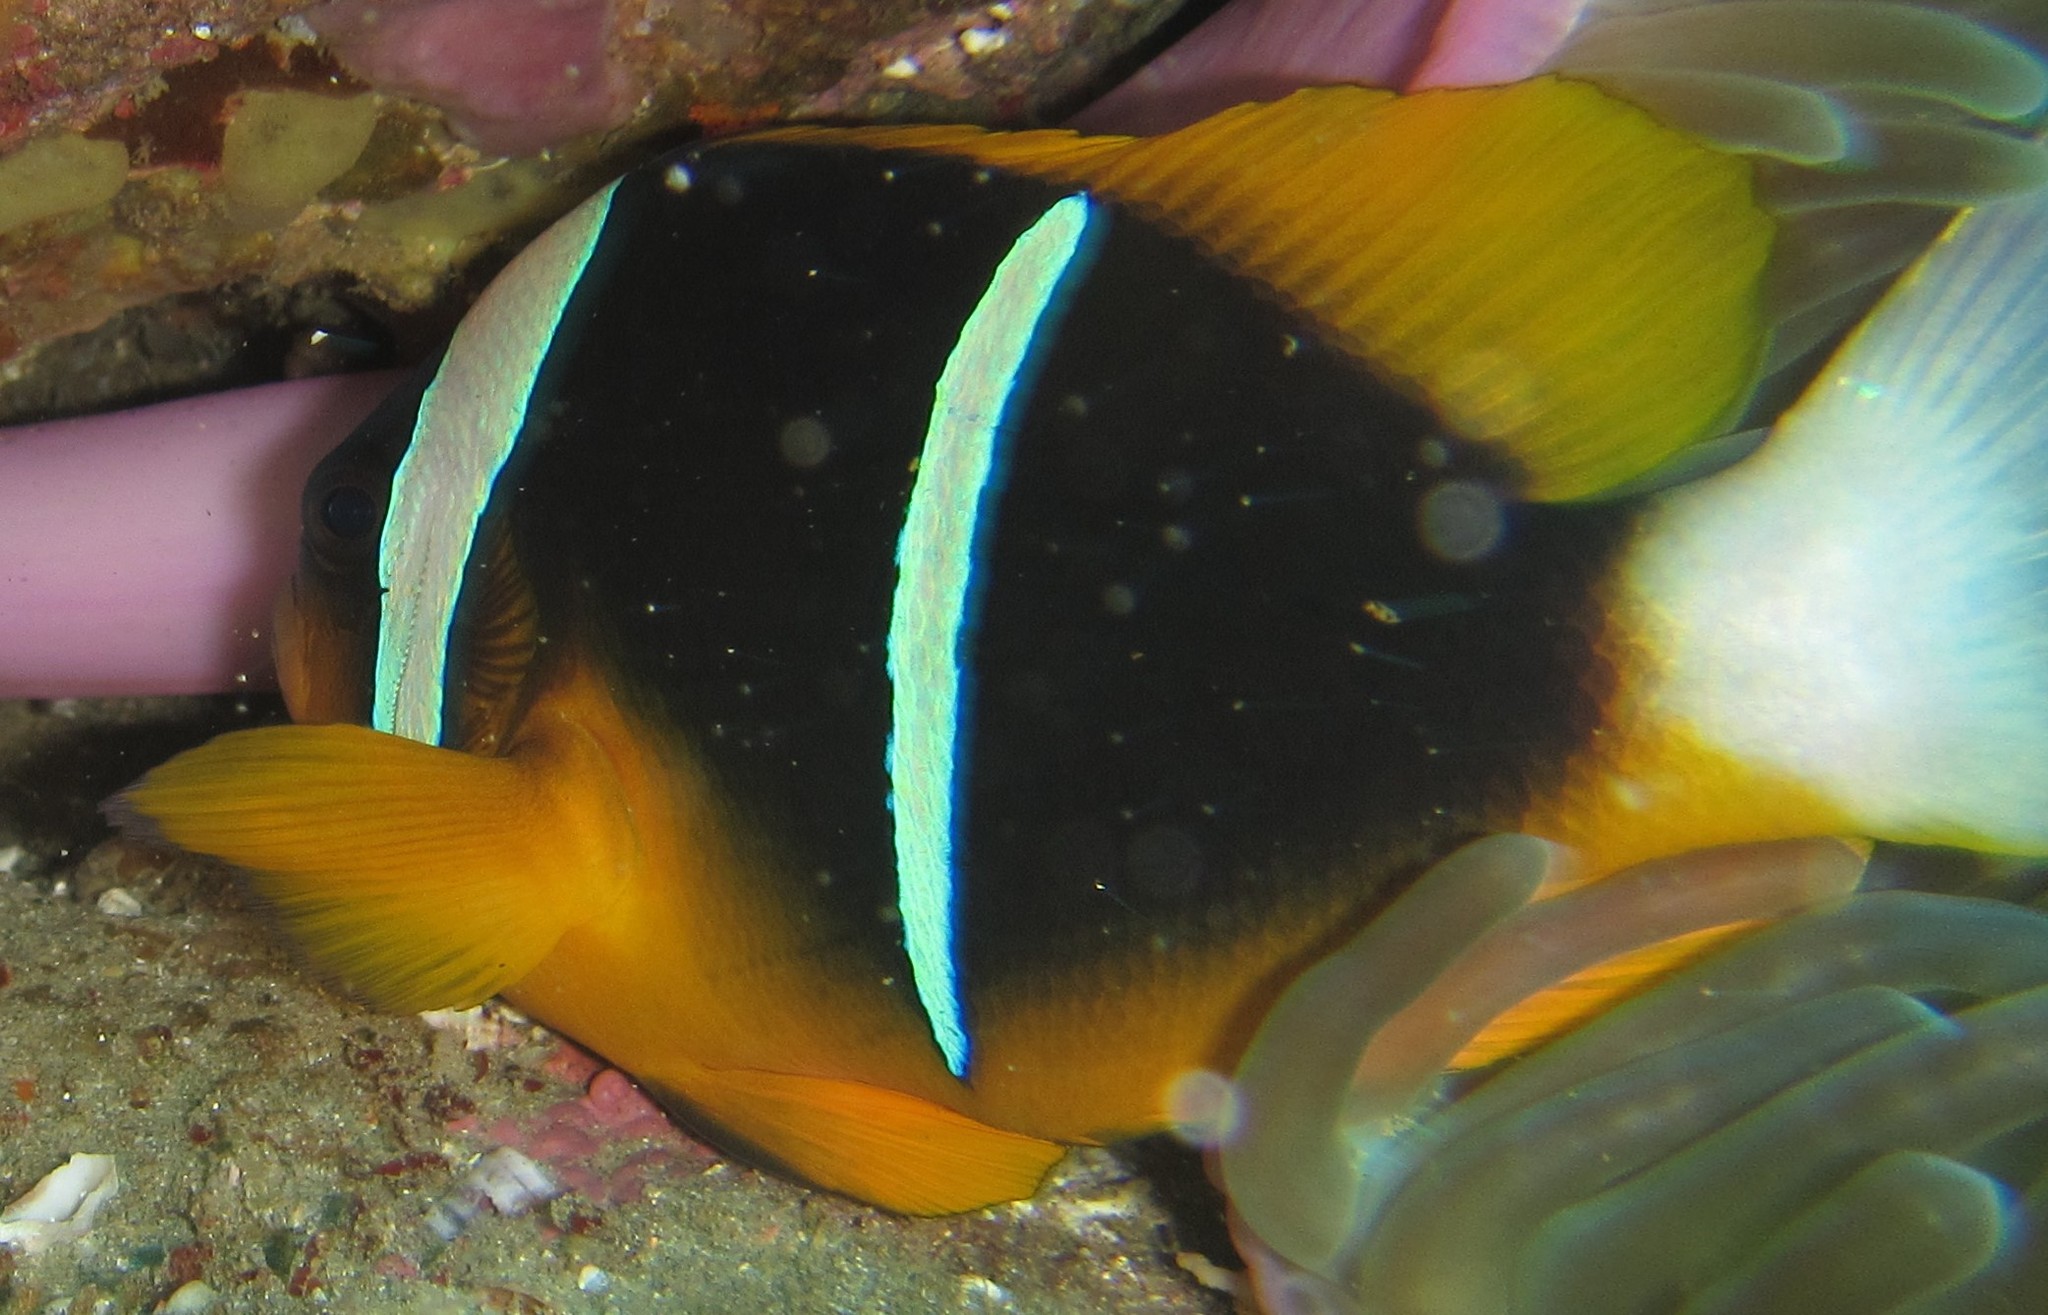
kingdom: Animalia
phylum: Chordata
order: Perciformes
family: Pomacentridae
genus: Amphiprion
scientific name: Amphiprion allardi
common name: Allard's anemonefish
